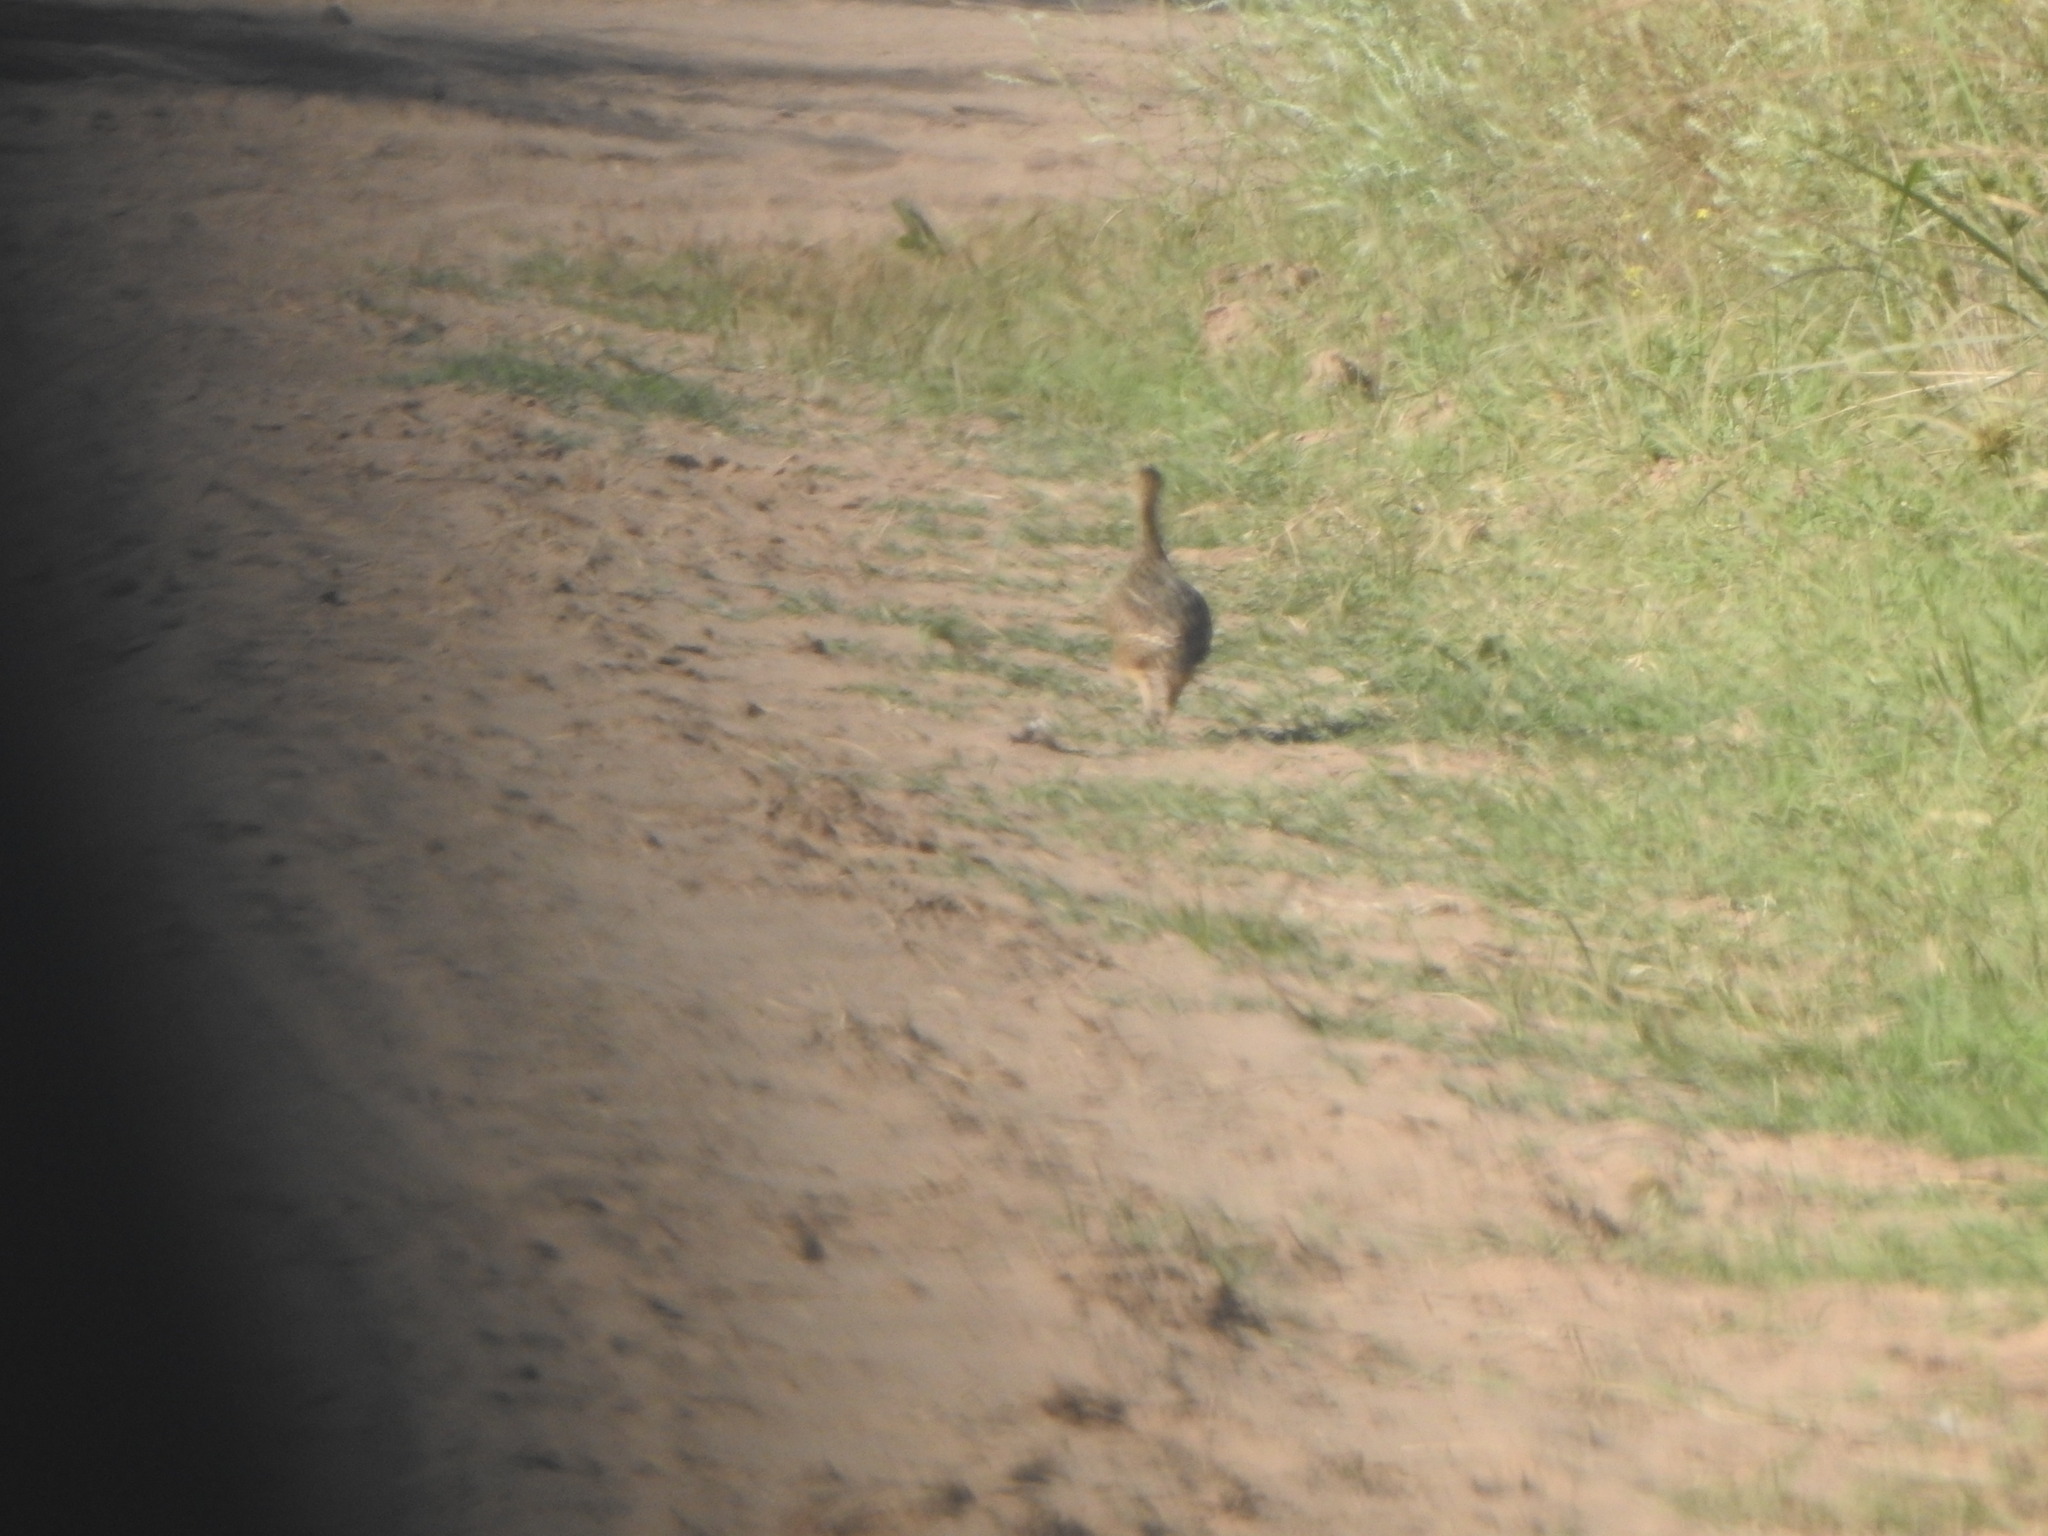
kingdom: Animalia
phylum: Chordata
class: Aves
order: Tinamiformes
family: Tinamidae
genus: Nothura
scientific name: Nothura maculosa
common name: Spotted nothura
